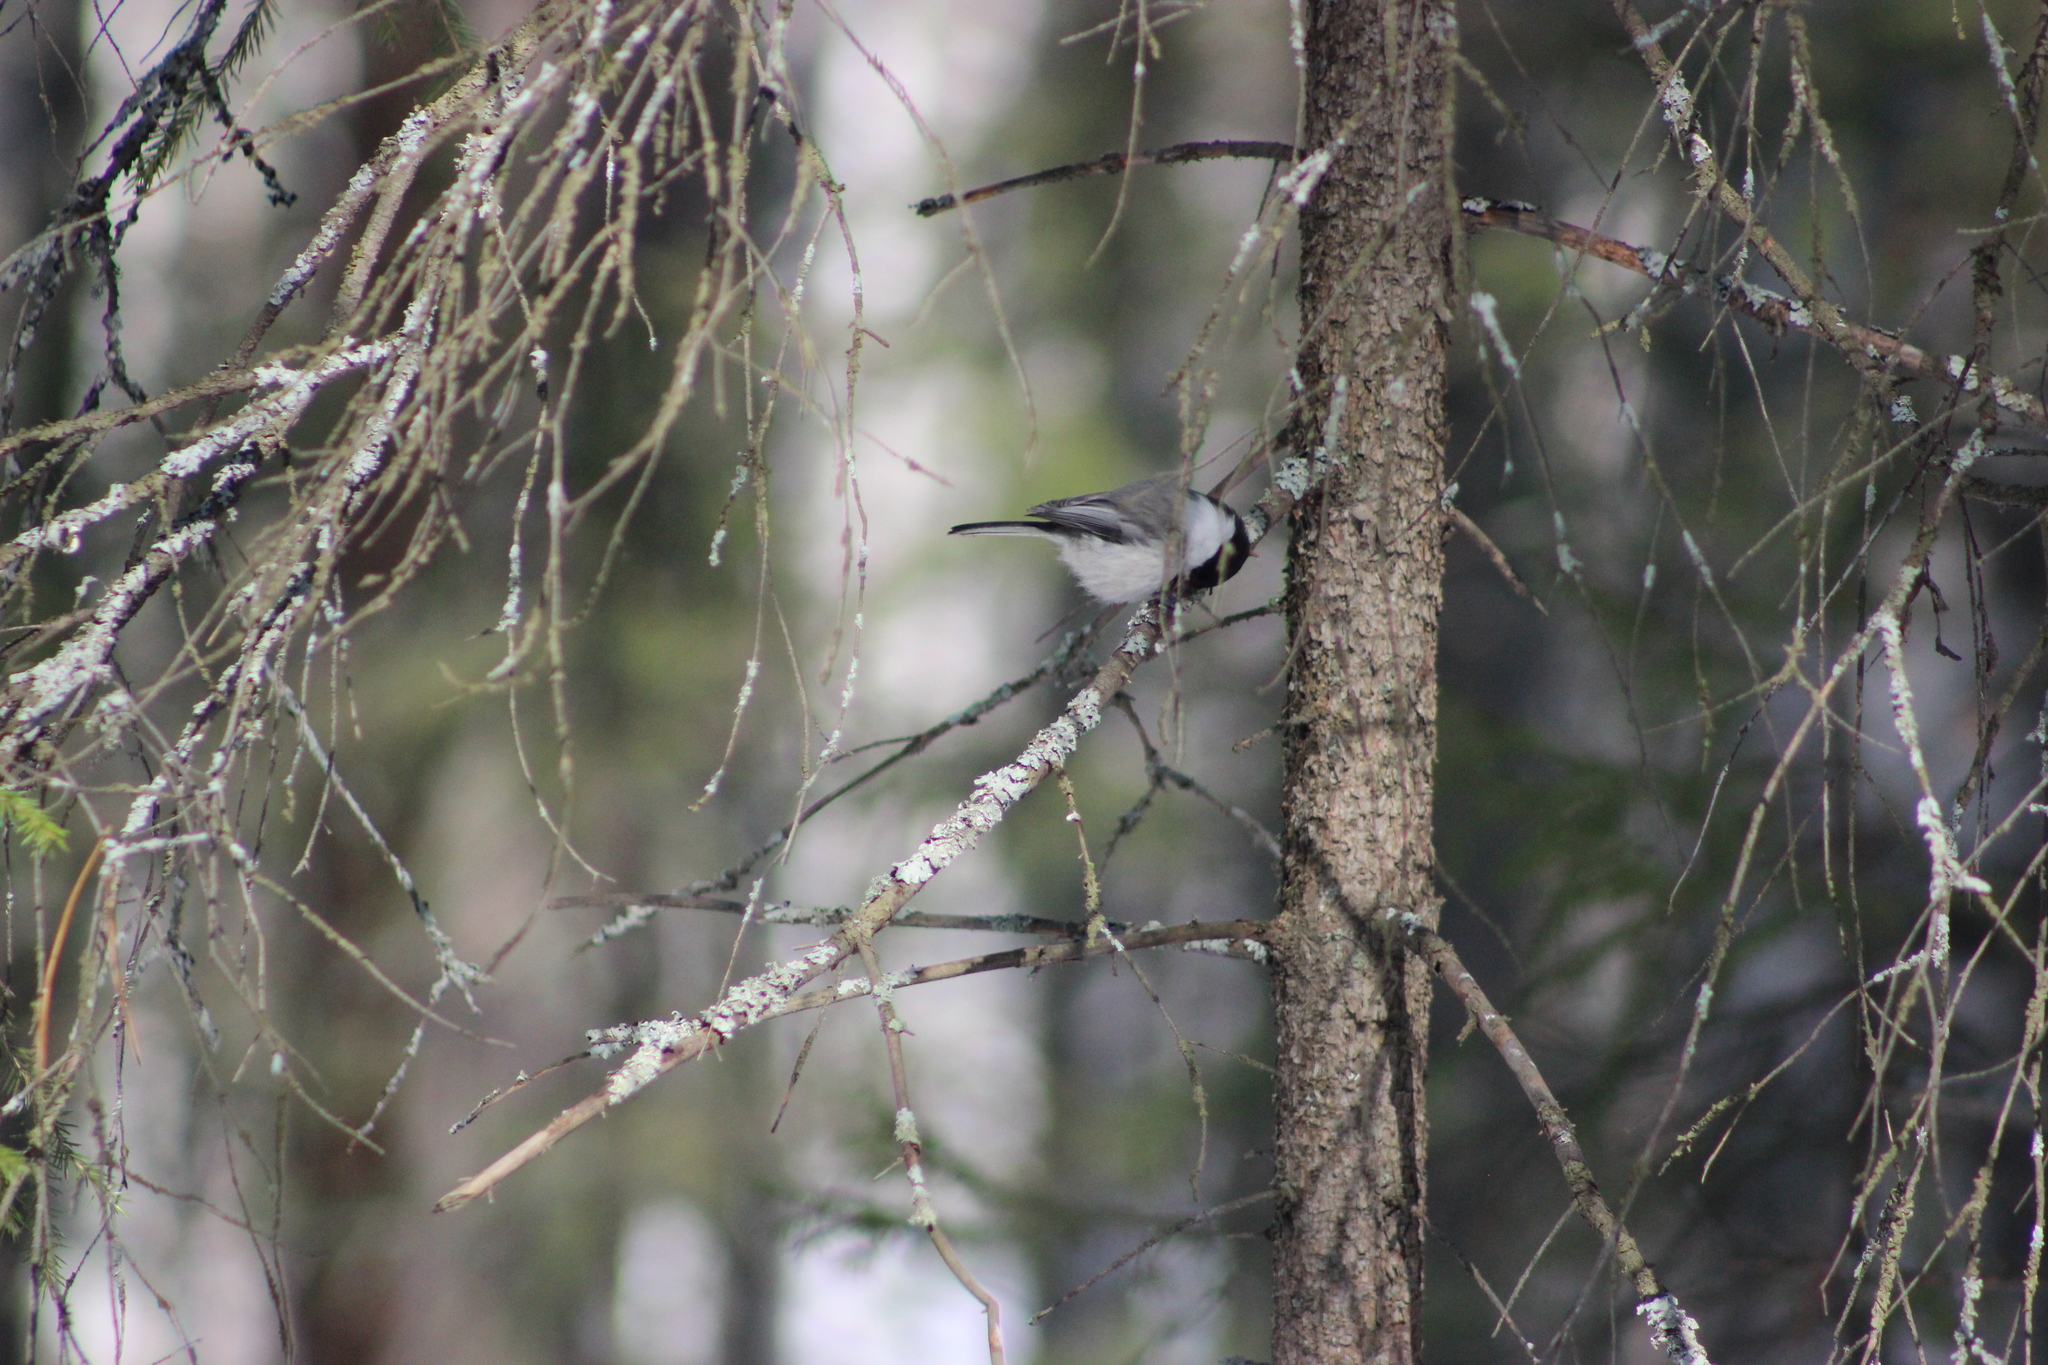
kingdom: Animalia
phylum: Chordata
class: Aves
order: Passeriformes
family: Paridae
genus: Poecile
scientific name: Poecile montanus
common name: Willow tit
